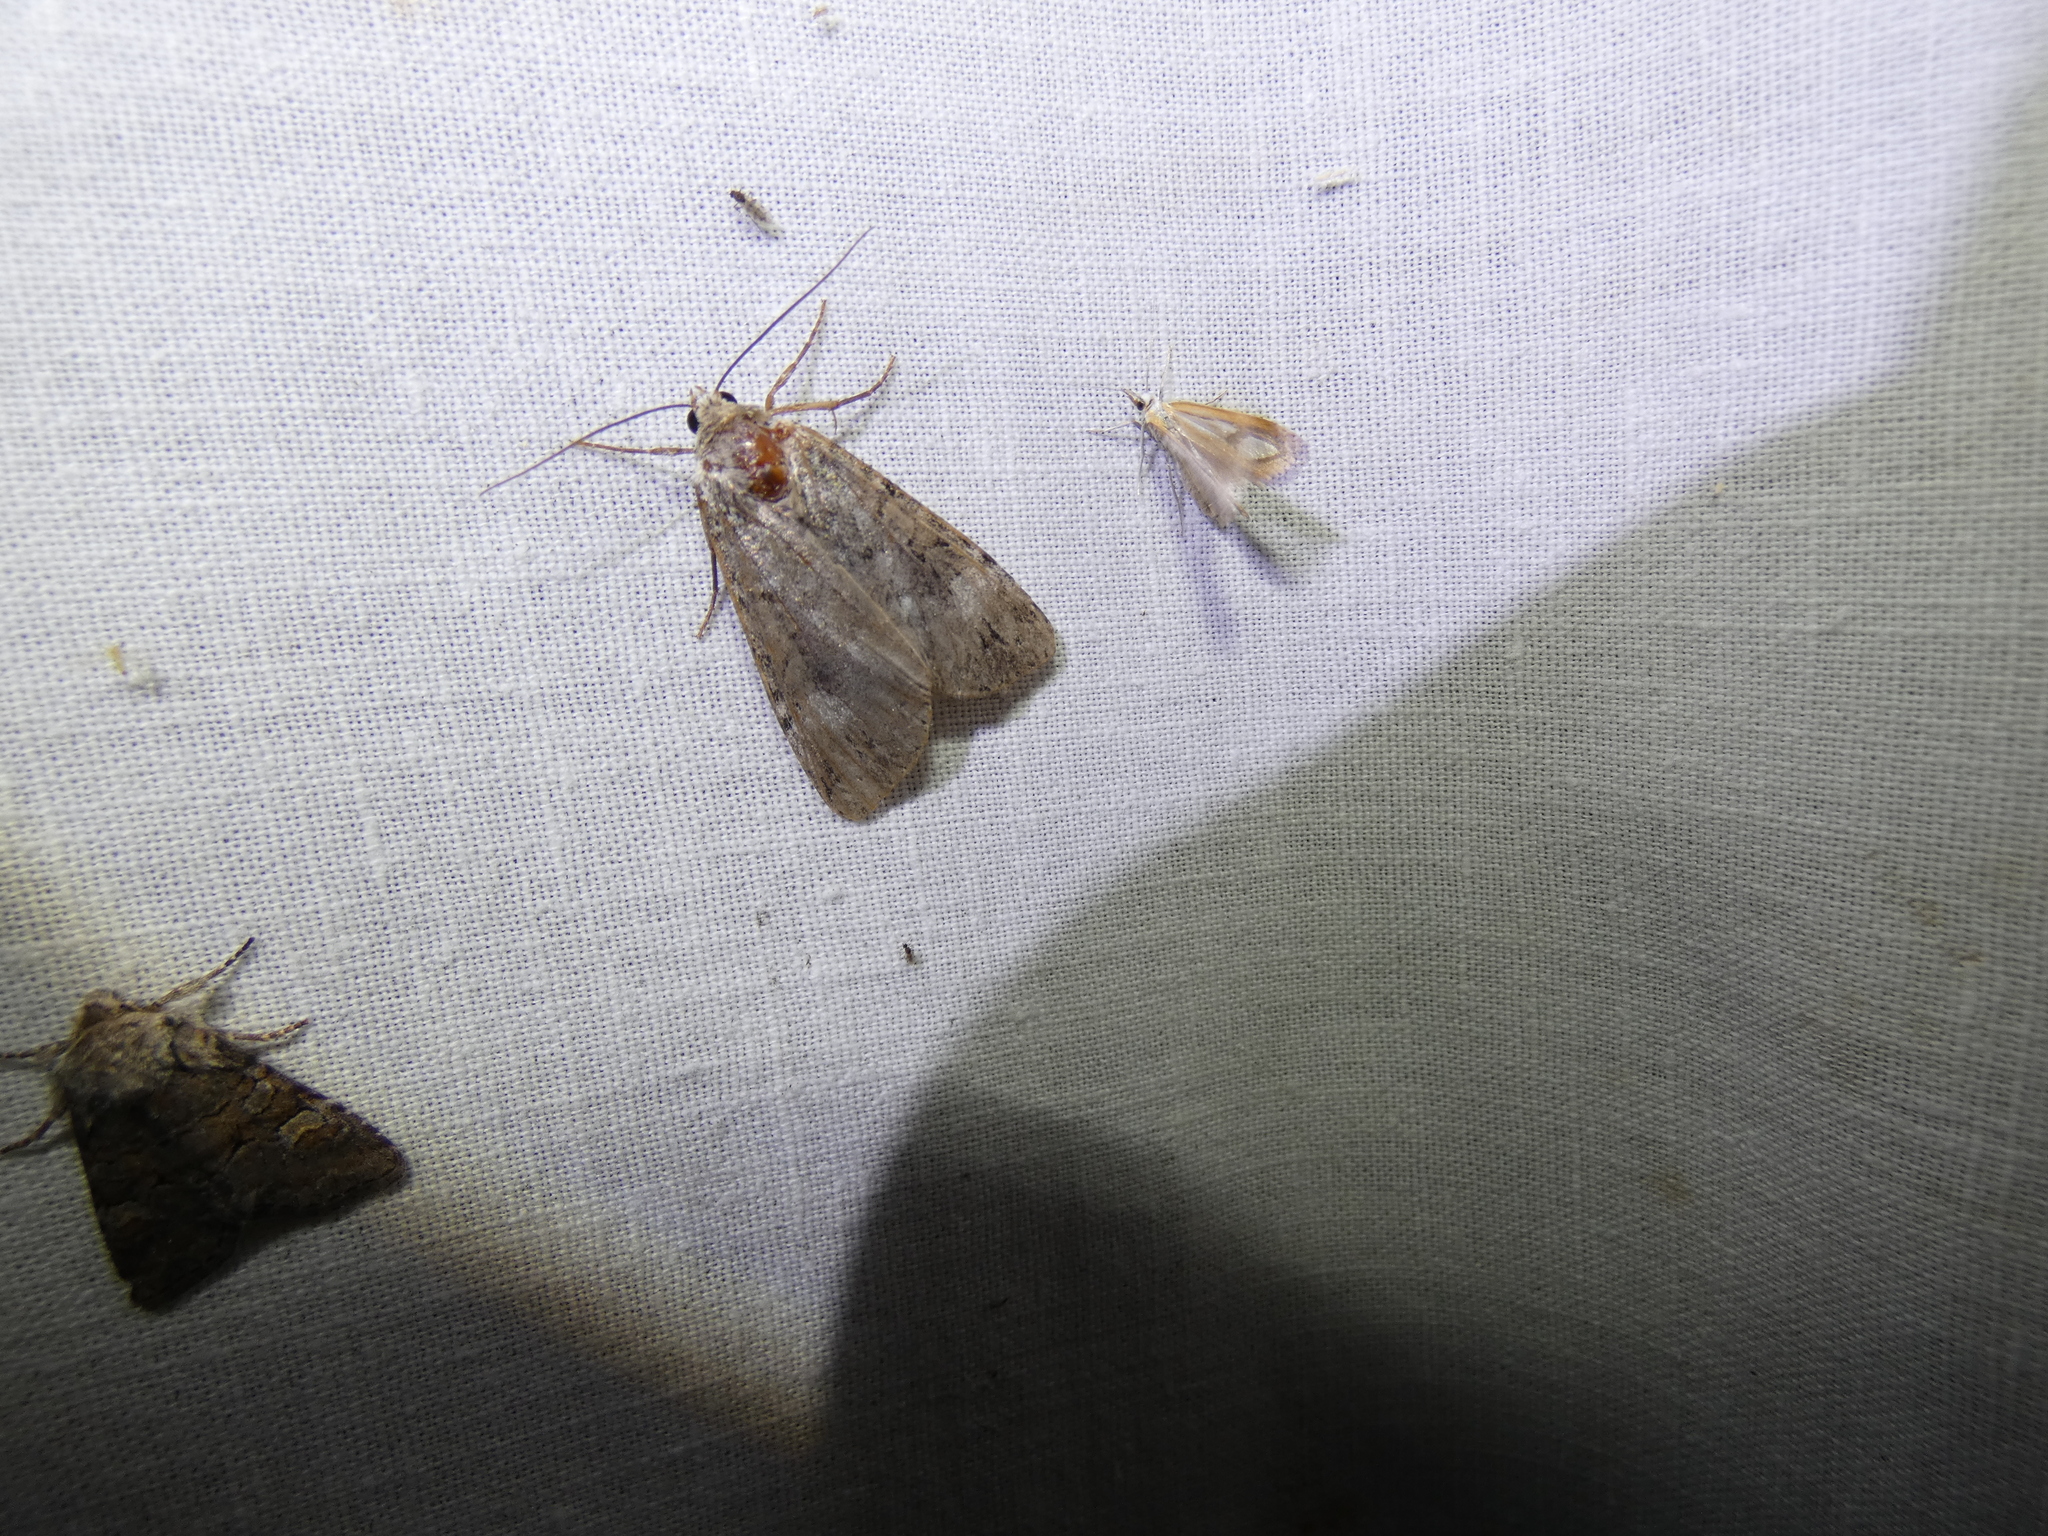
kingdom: Animalia
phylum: Arthropoda
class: Insecta
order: Lepidoptera
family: Noctuidae
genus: Anaplectoides
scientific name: Anaplectoides prasina
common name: Green arches
